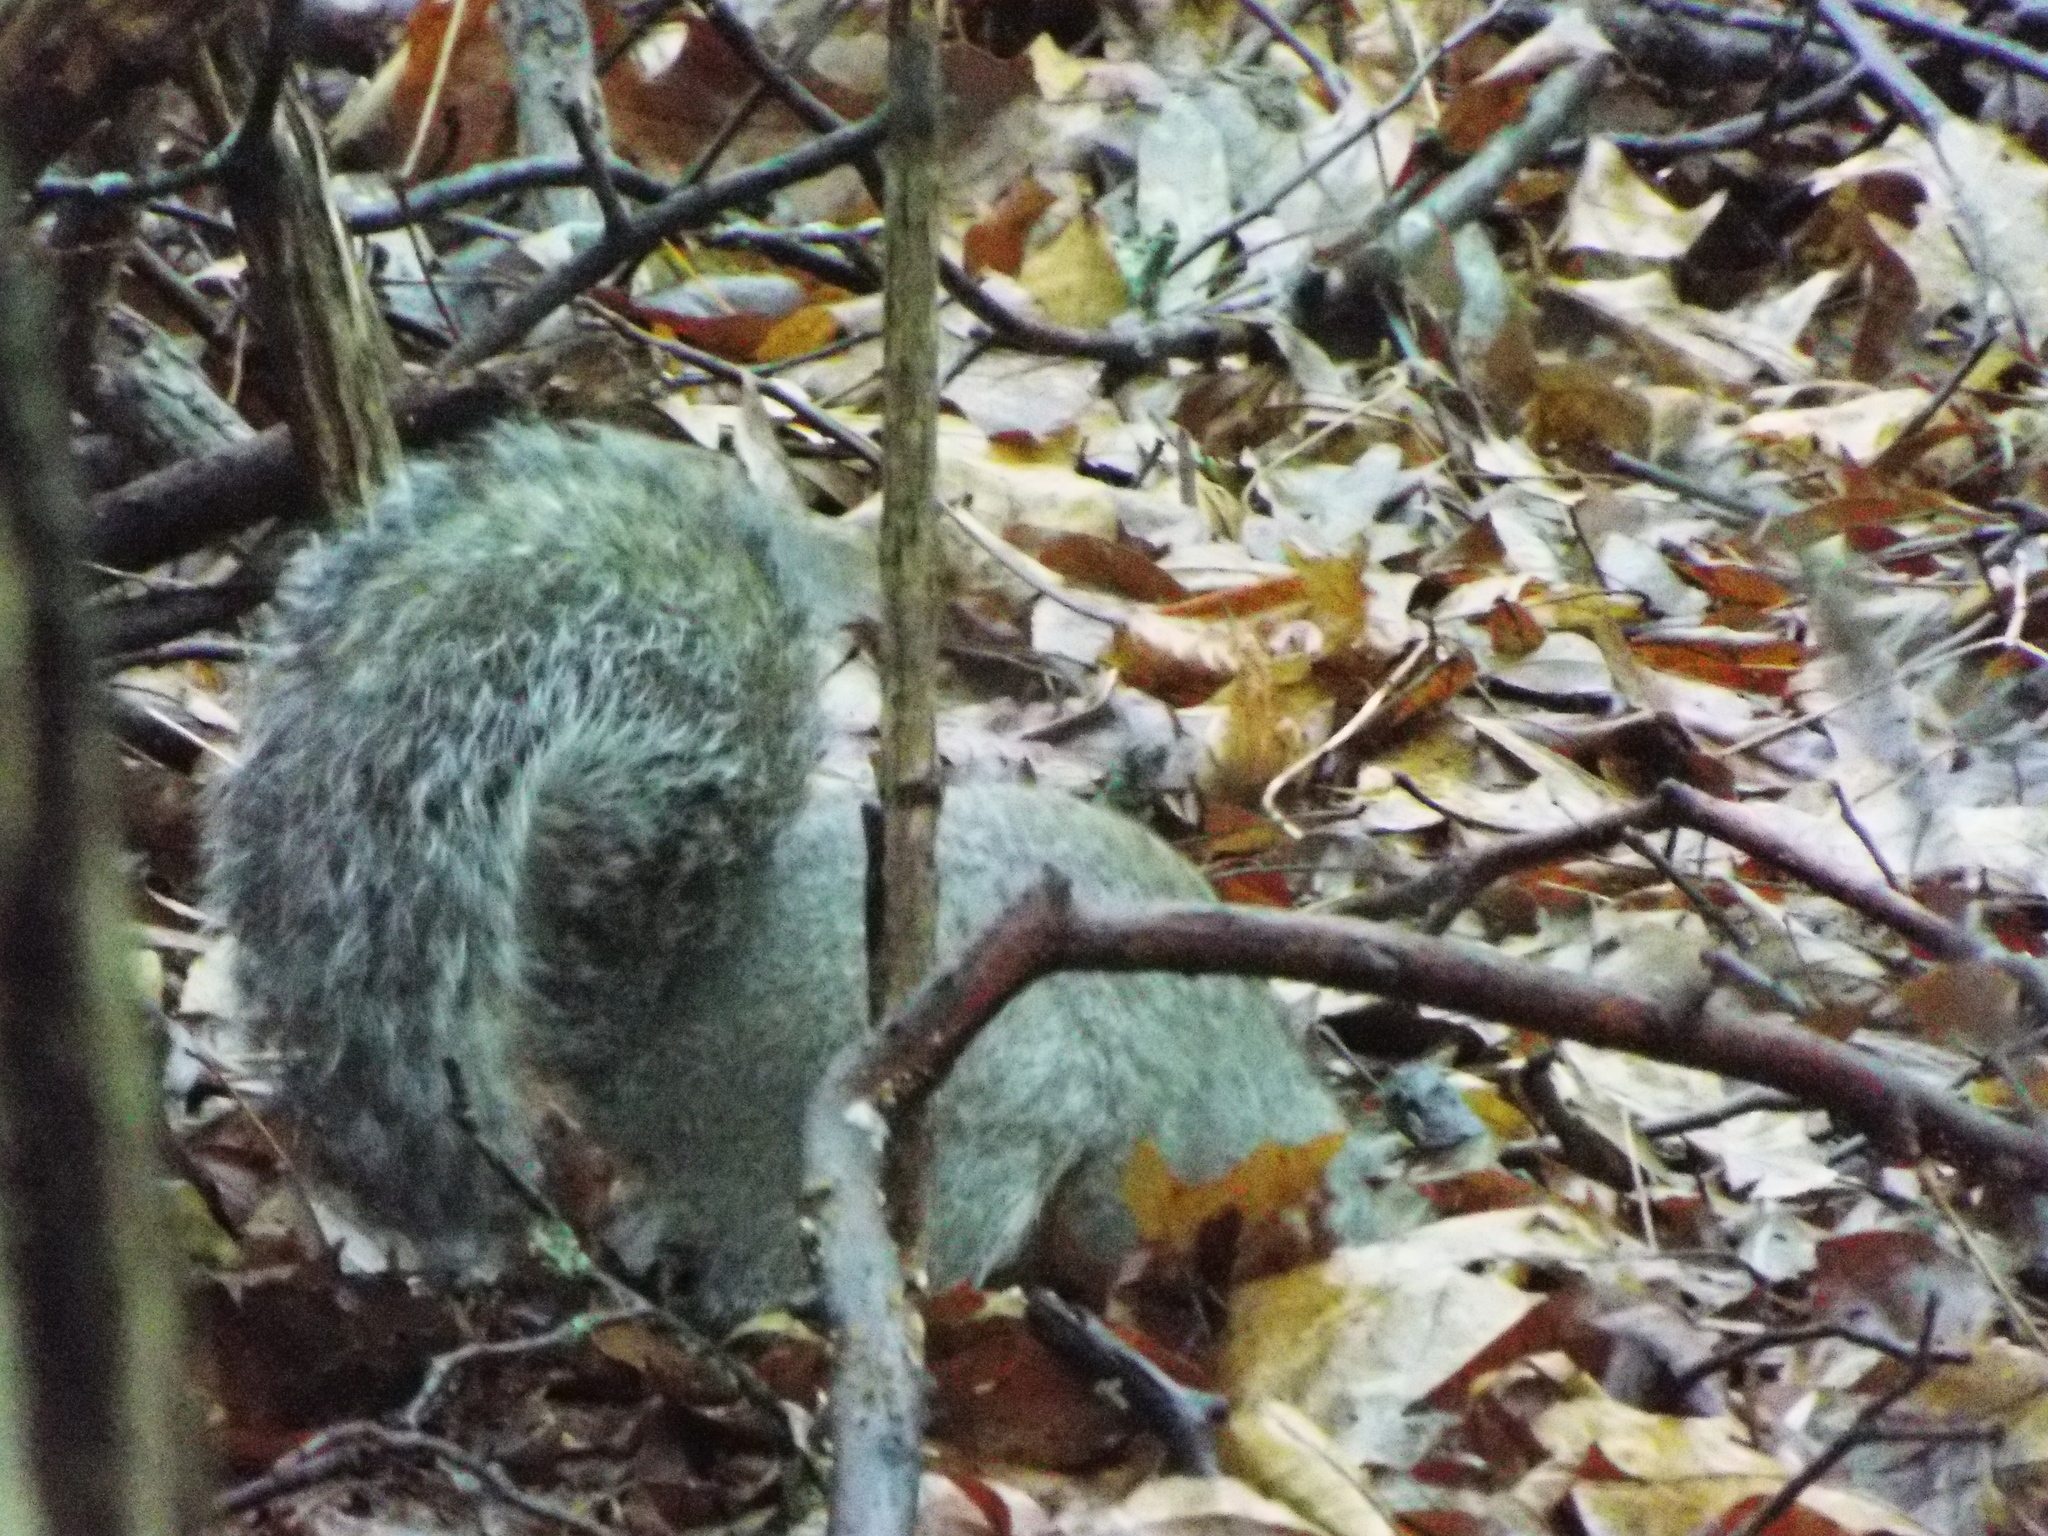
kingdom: Animalia
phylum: Chordata
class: Mammalia
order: Rodentia
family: Sciuridae
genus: Sciurus
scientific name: Sciurus carolinensis
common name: Eastern gray squirrel
